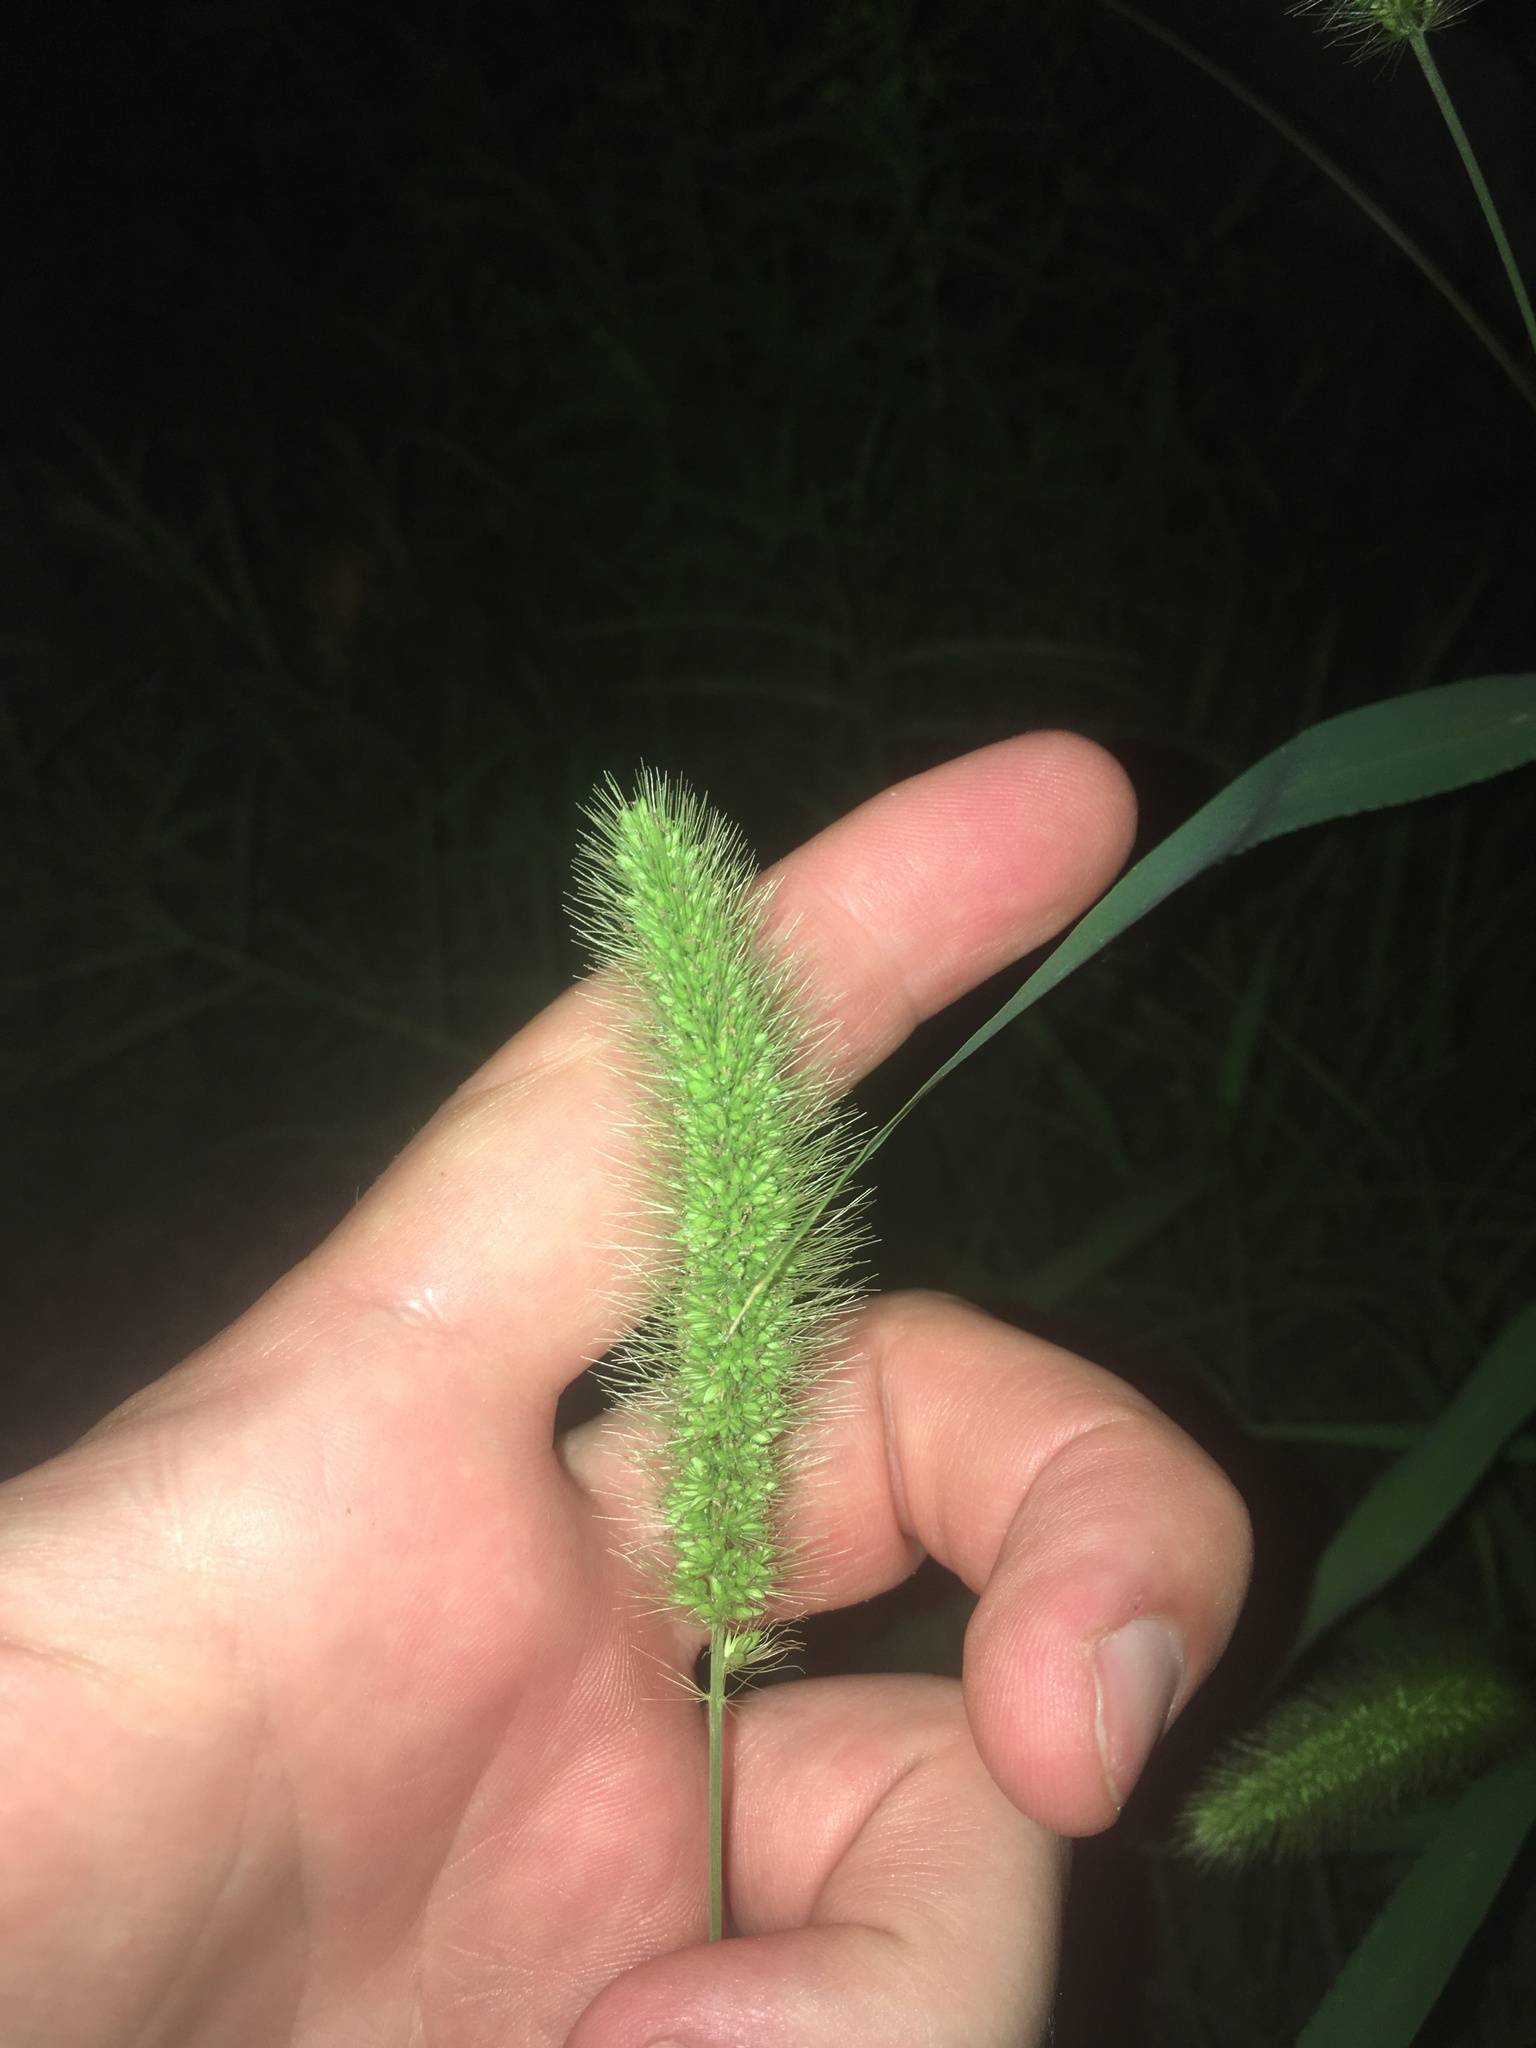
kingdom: Plantae
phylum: Tracheophyta
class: Liliopsida
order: Poales
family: Poaceae
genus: Setaria
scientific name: Setaria viridis
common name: Green bristlegrass
